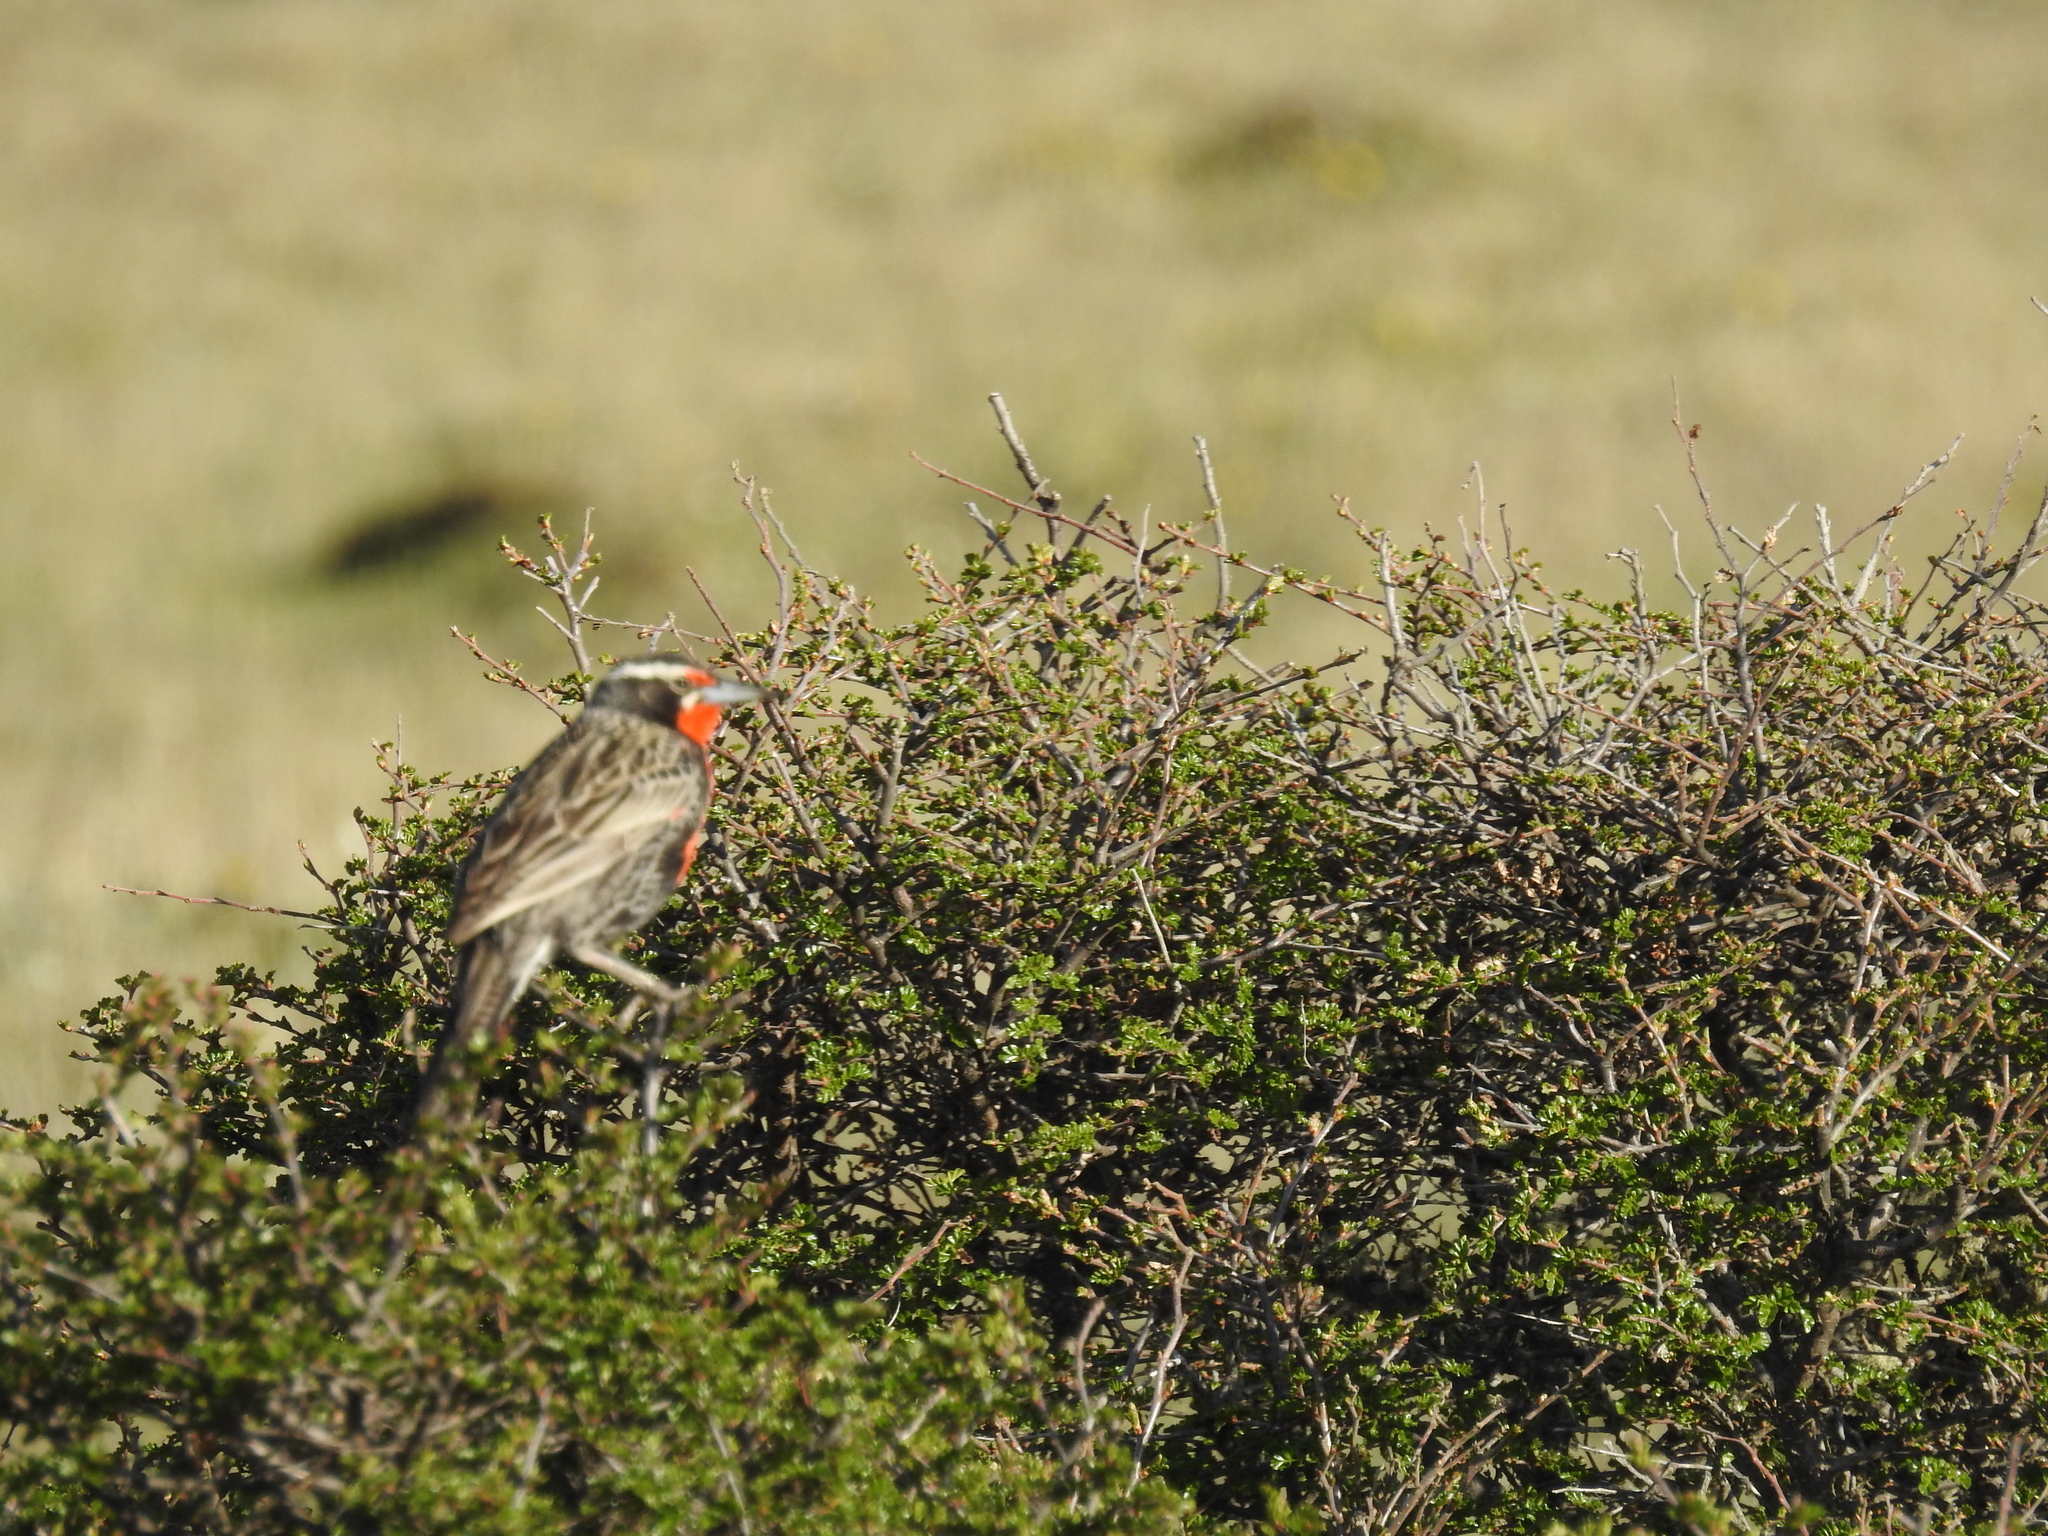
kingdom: Animalia
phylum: Chordata
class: Aves
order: Passeriformes
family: Icteridae
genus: Sturnella
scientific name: Sturnella loyca
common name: Long-tailed meadowlark
